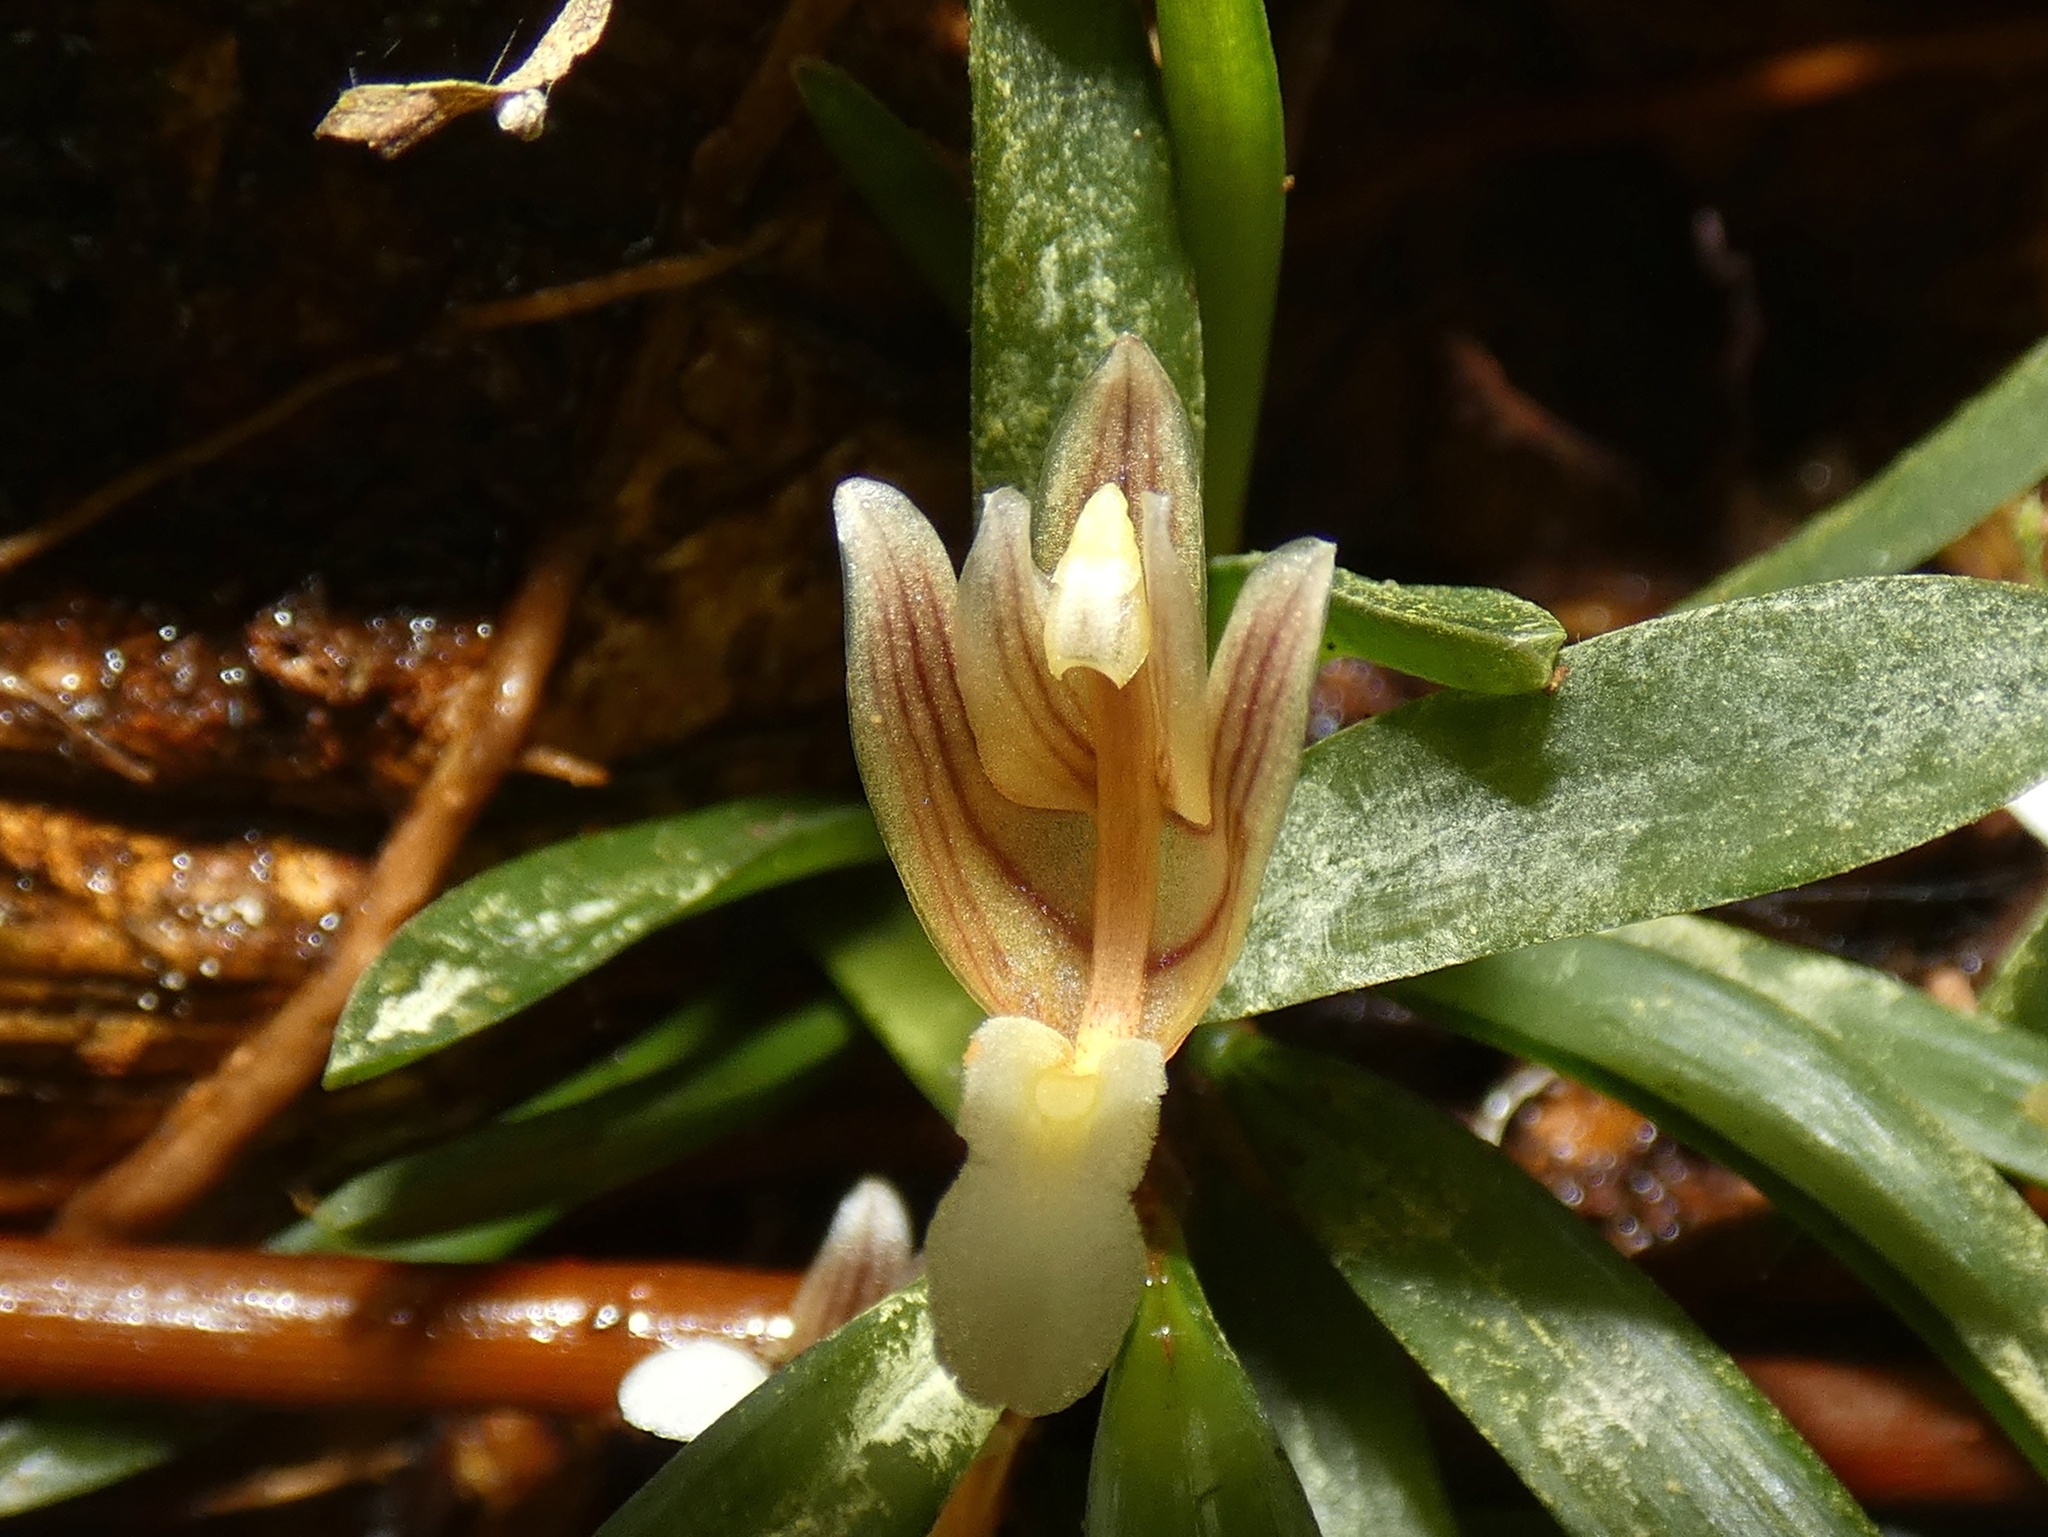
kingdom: Plantae
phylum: Tracheophyta
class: Liliopsida
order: Asparagales
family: Orchidaceae
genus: Maxillaria
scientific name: Maxillaria macleei
